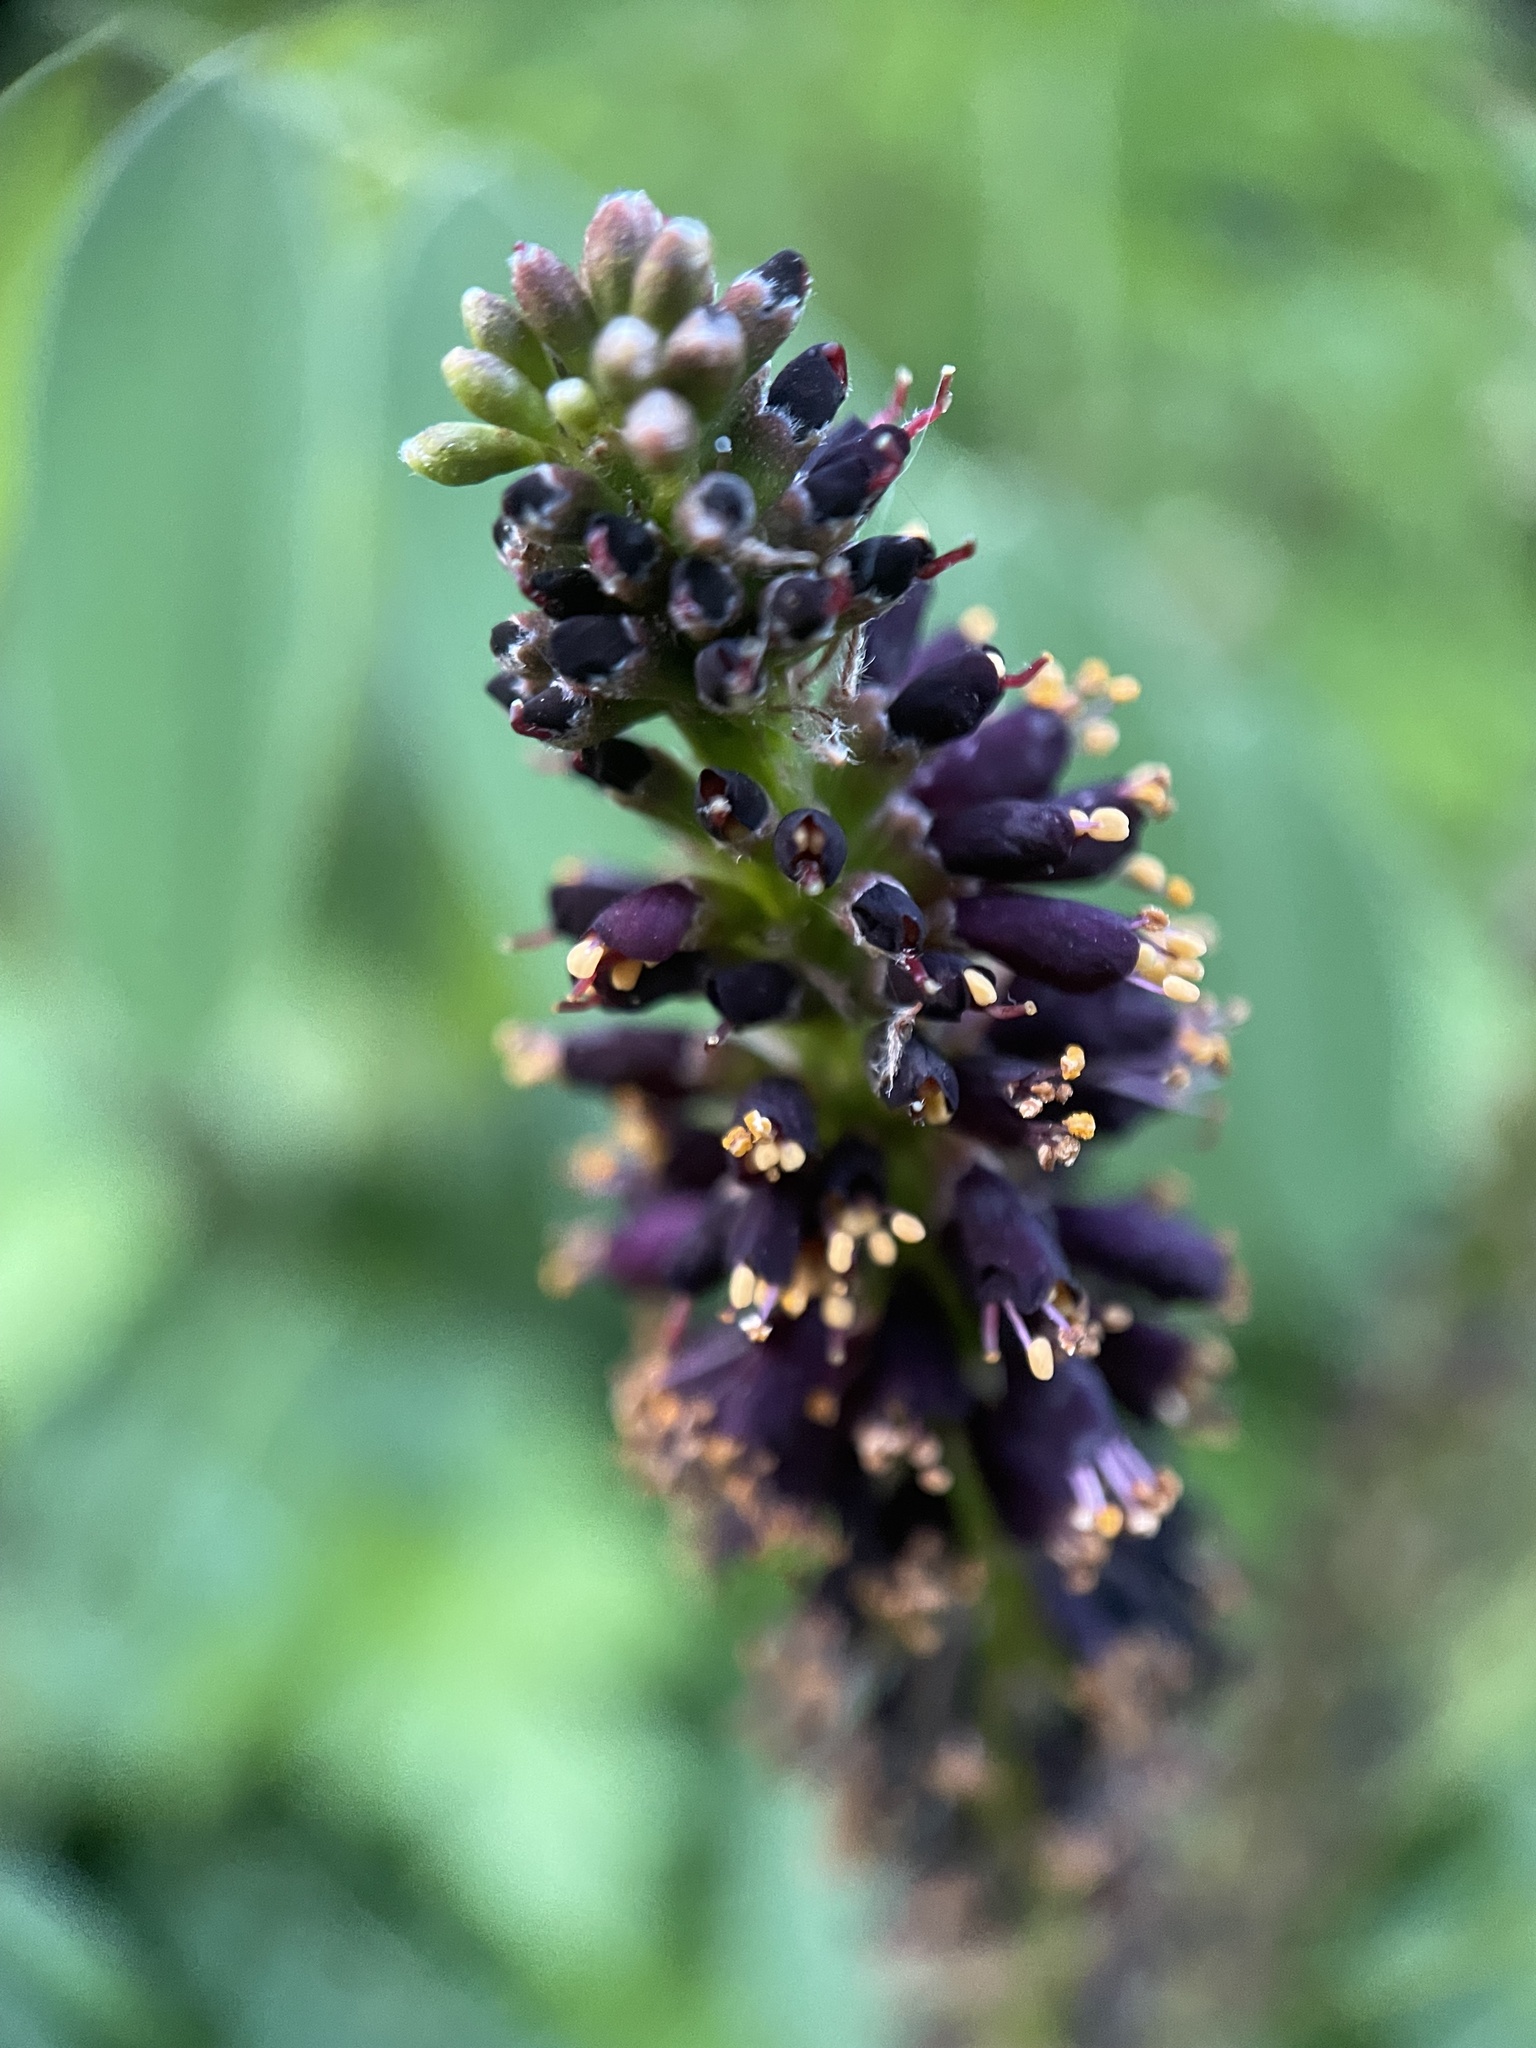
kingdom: Plantae
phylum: Tracheophyta
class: Magnoliopsida
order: Fabales
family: Fabaceae
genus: Amorpha
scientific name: Amorpha fruticosa
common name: False indigo
